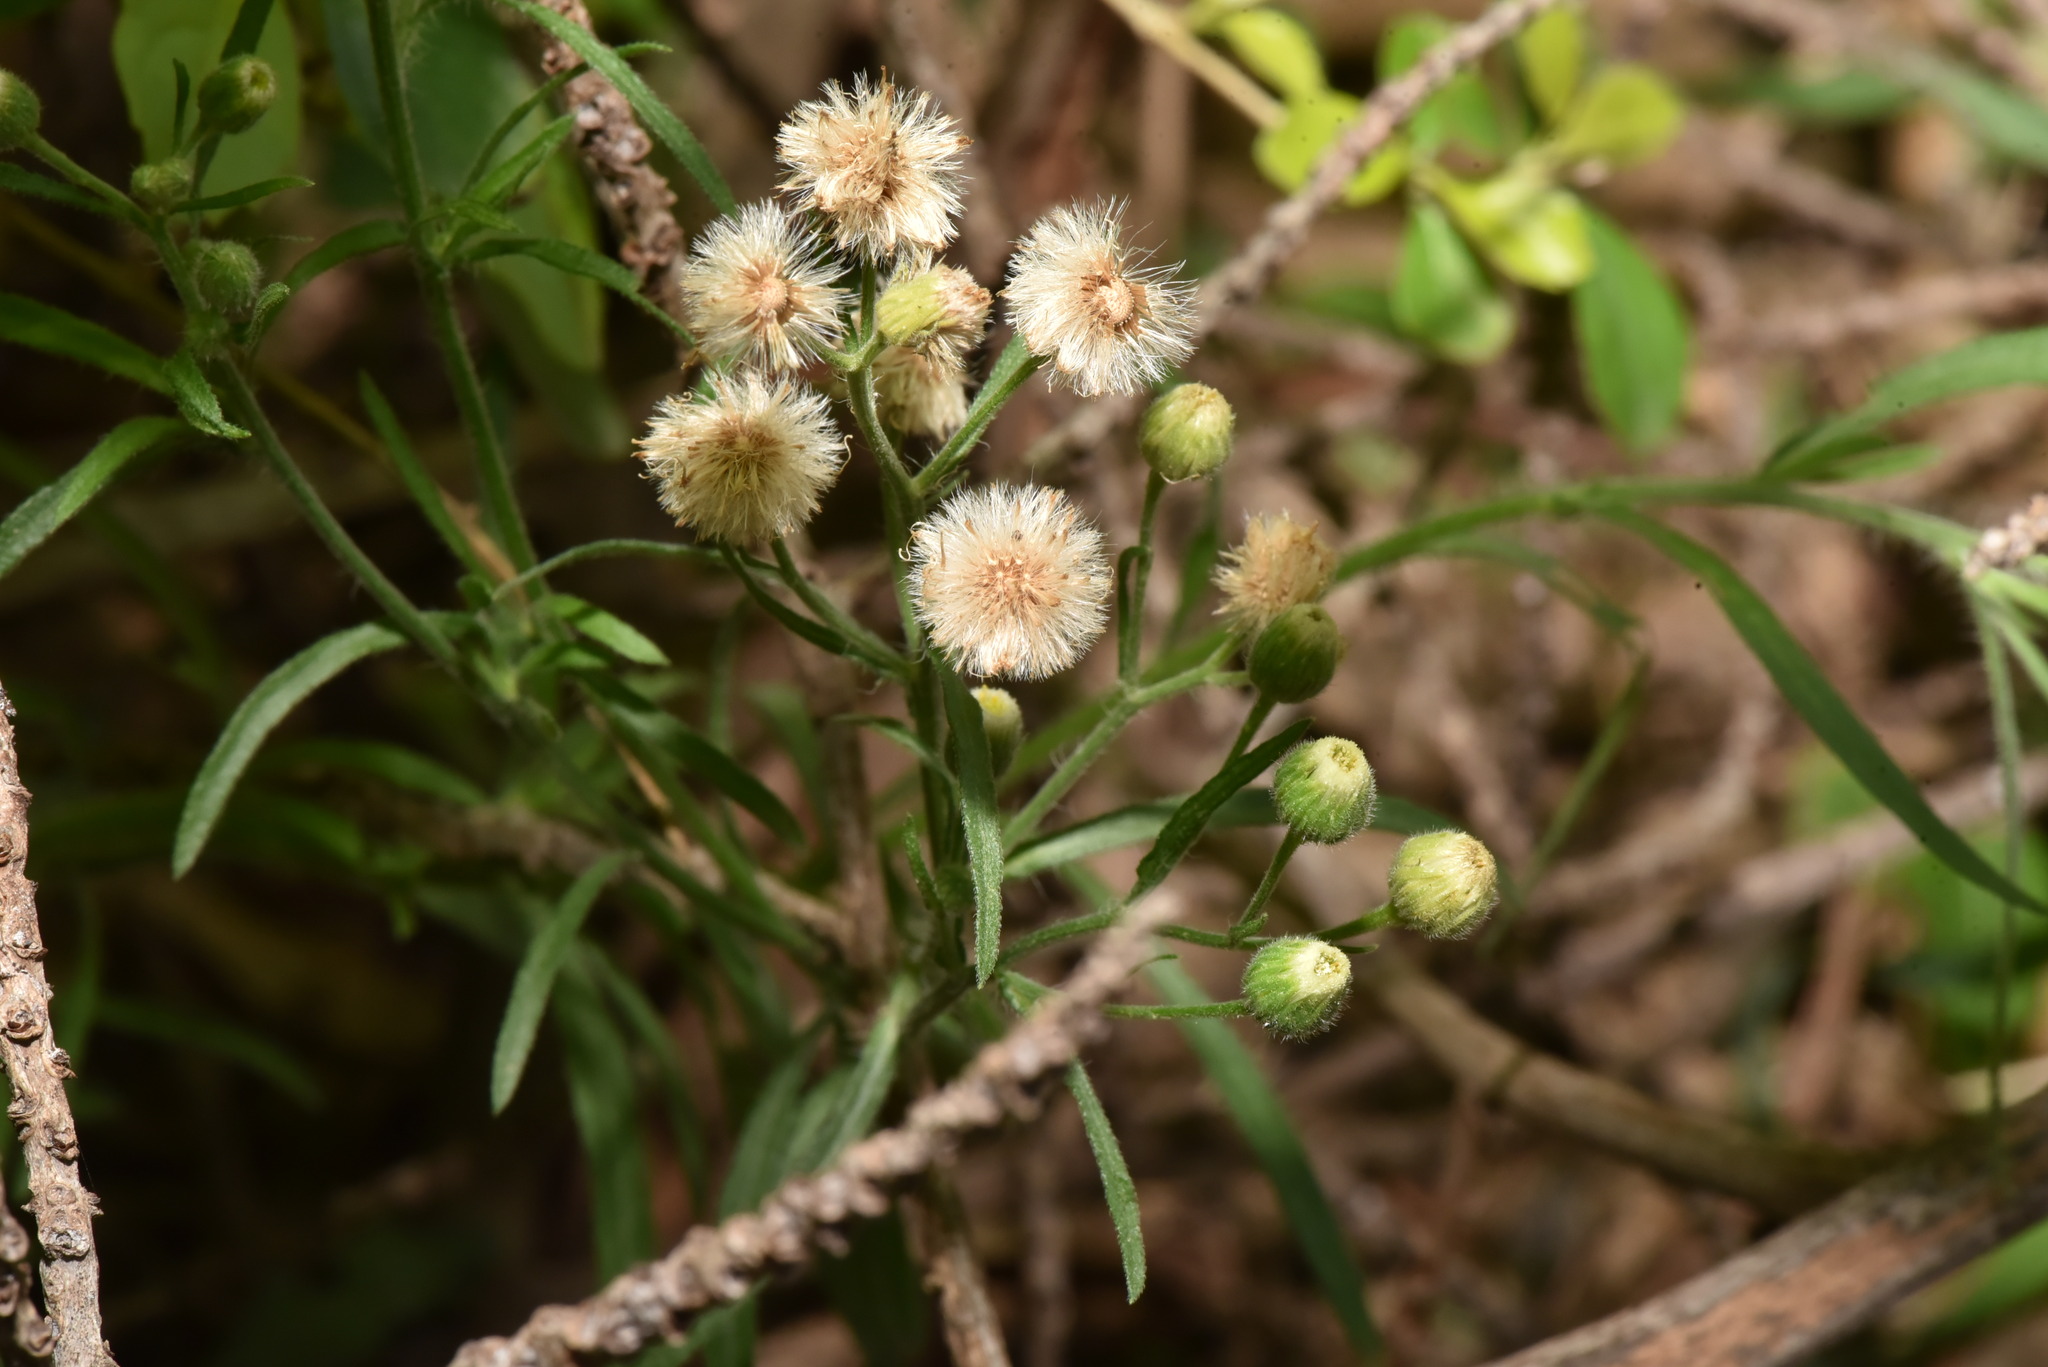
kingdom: Plantae
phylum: Tracheophyta
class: Magnoliopsida
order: Asterales
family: Asteraceae
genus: Erigeron
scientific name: Erigeron bonariensis
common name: Argentine fleabane
